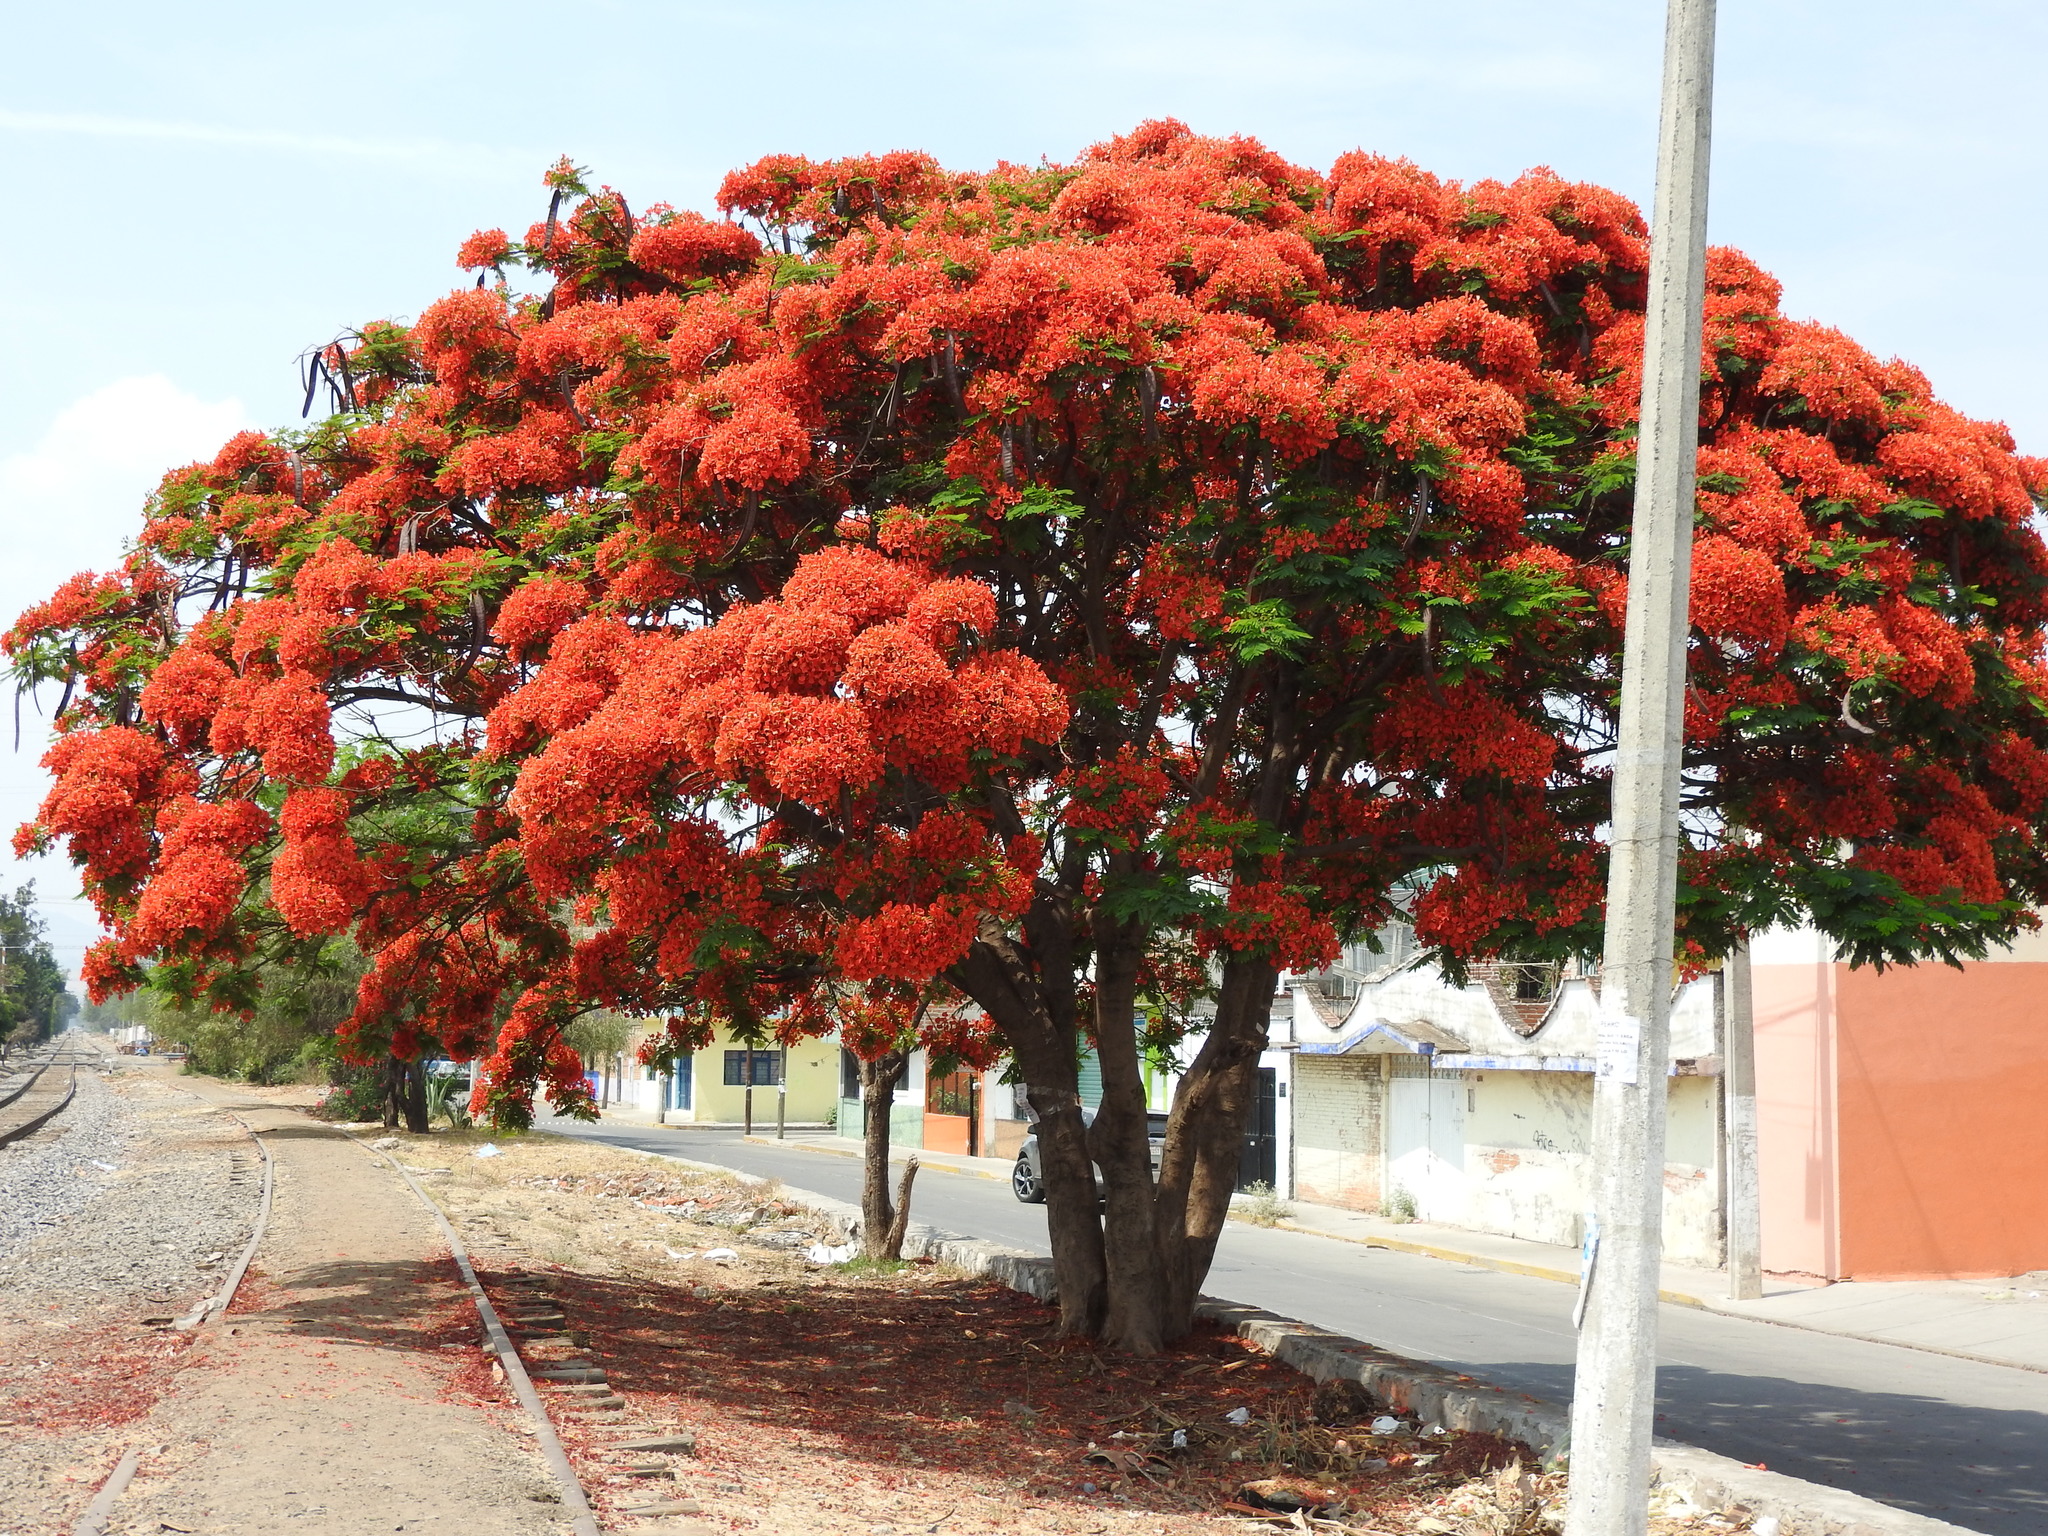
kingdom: Plantae
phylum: Tracheophyta
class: Magnoliopsida
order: Fabales
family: Fabaceae
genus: Delonix
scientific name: Delonix regia
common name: Royal poinciana
